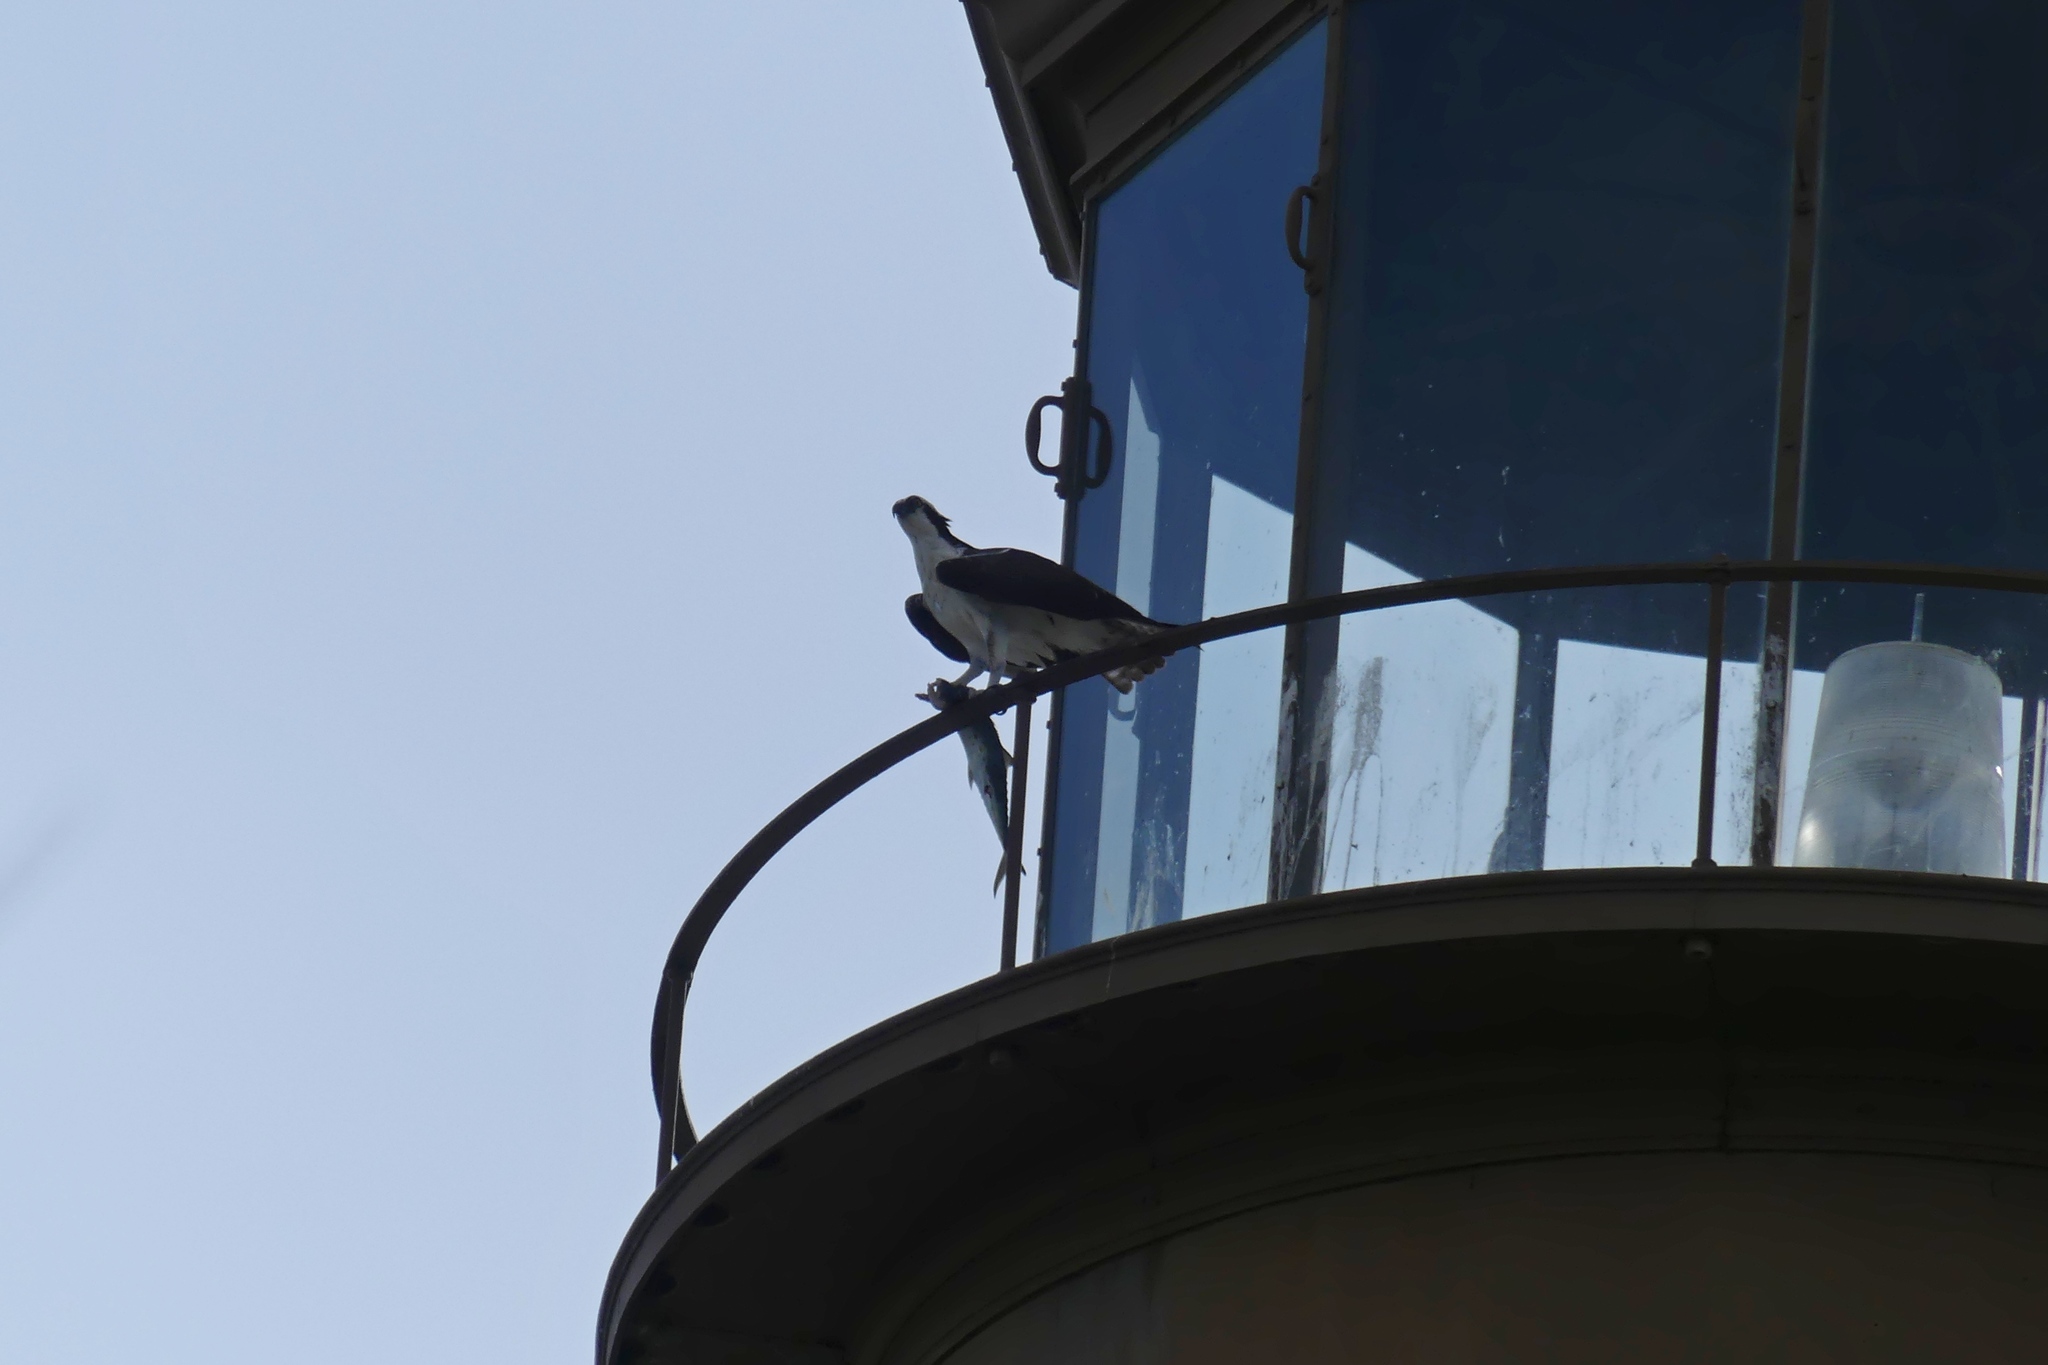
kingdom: Animalia
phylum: Chordata
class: Aves
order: Accipitriformes
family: Pandionidae
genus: Pandion
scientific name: Pandion haliaetus
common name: Osprey
